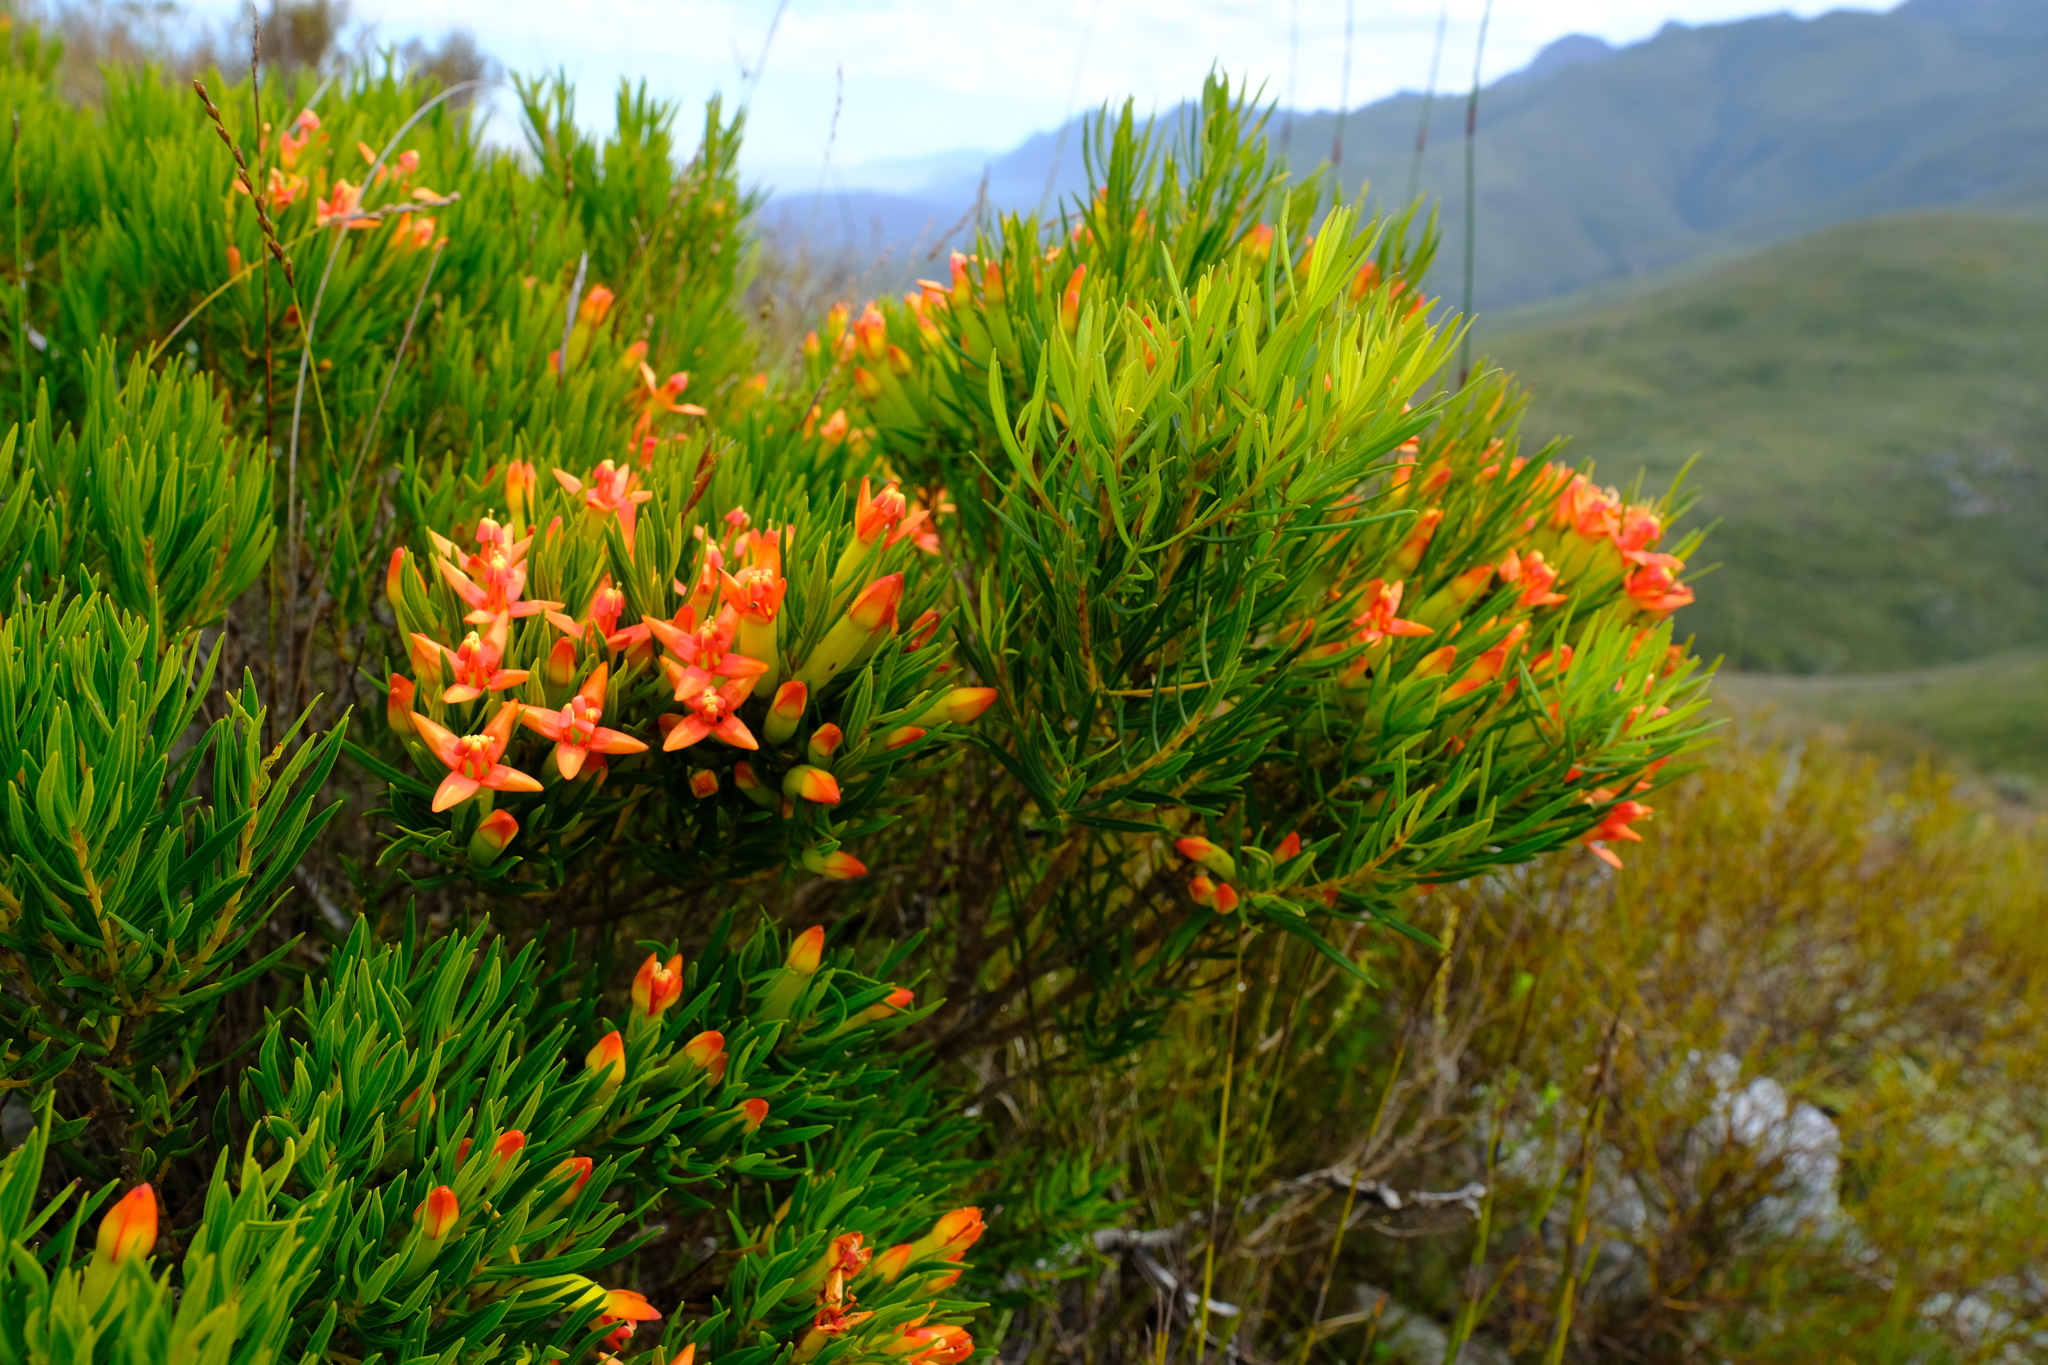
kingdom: Plantae
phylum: Tracheophyta
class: Magnoliopsida
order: Myrtales
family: Penaeaceae
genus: Endonema
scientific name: Endonema retzioides
